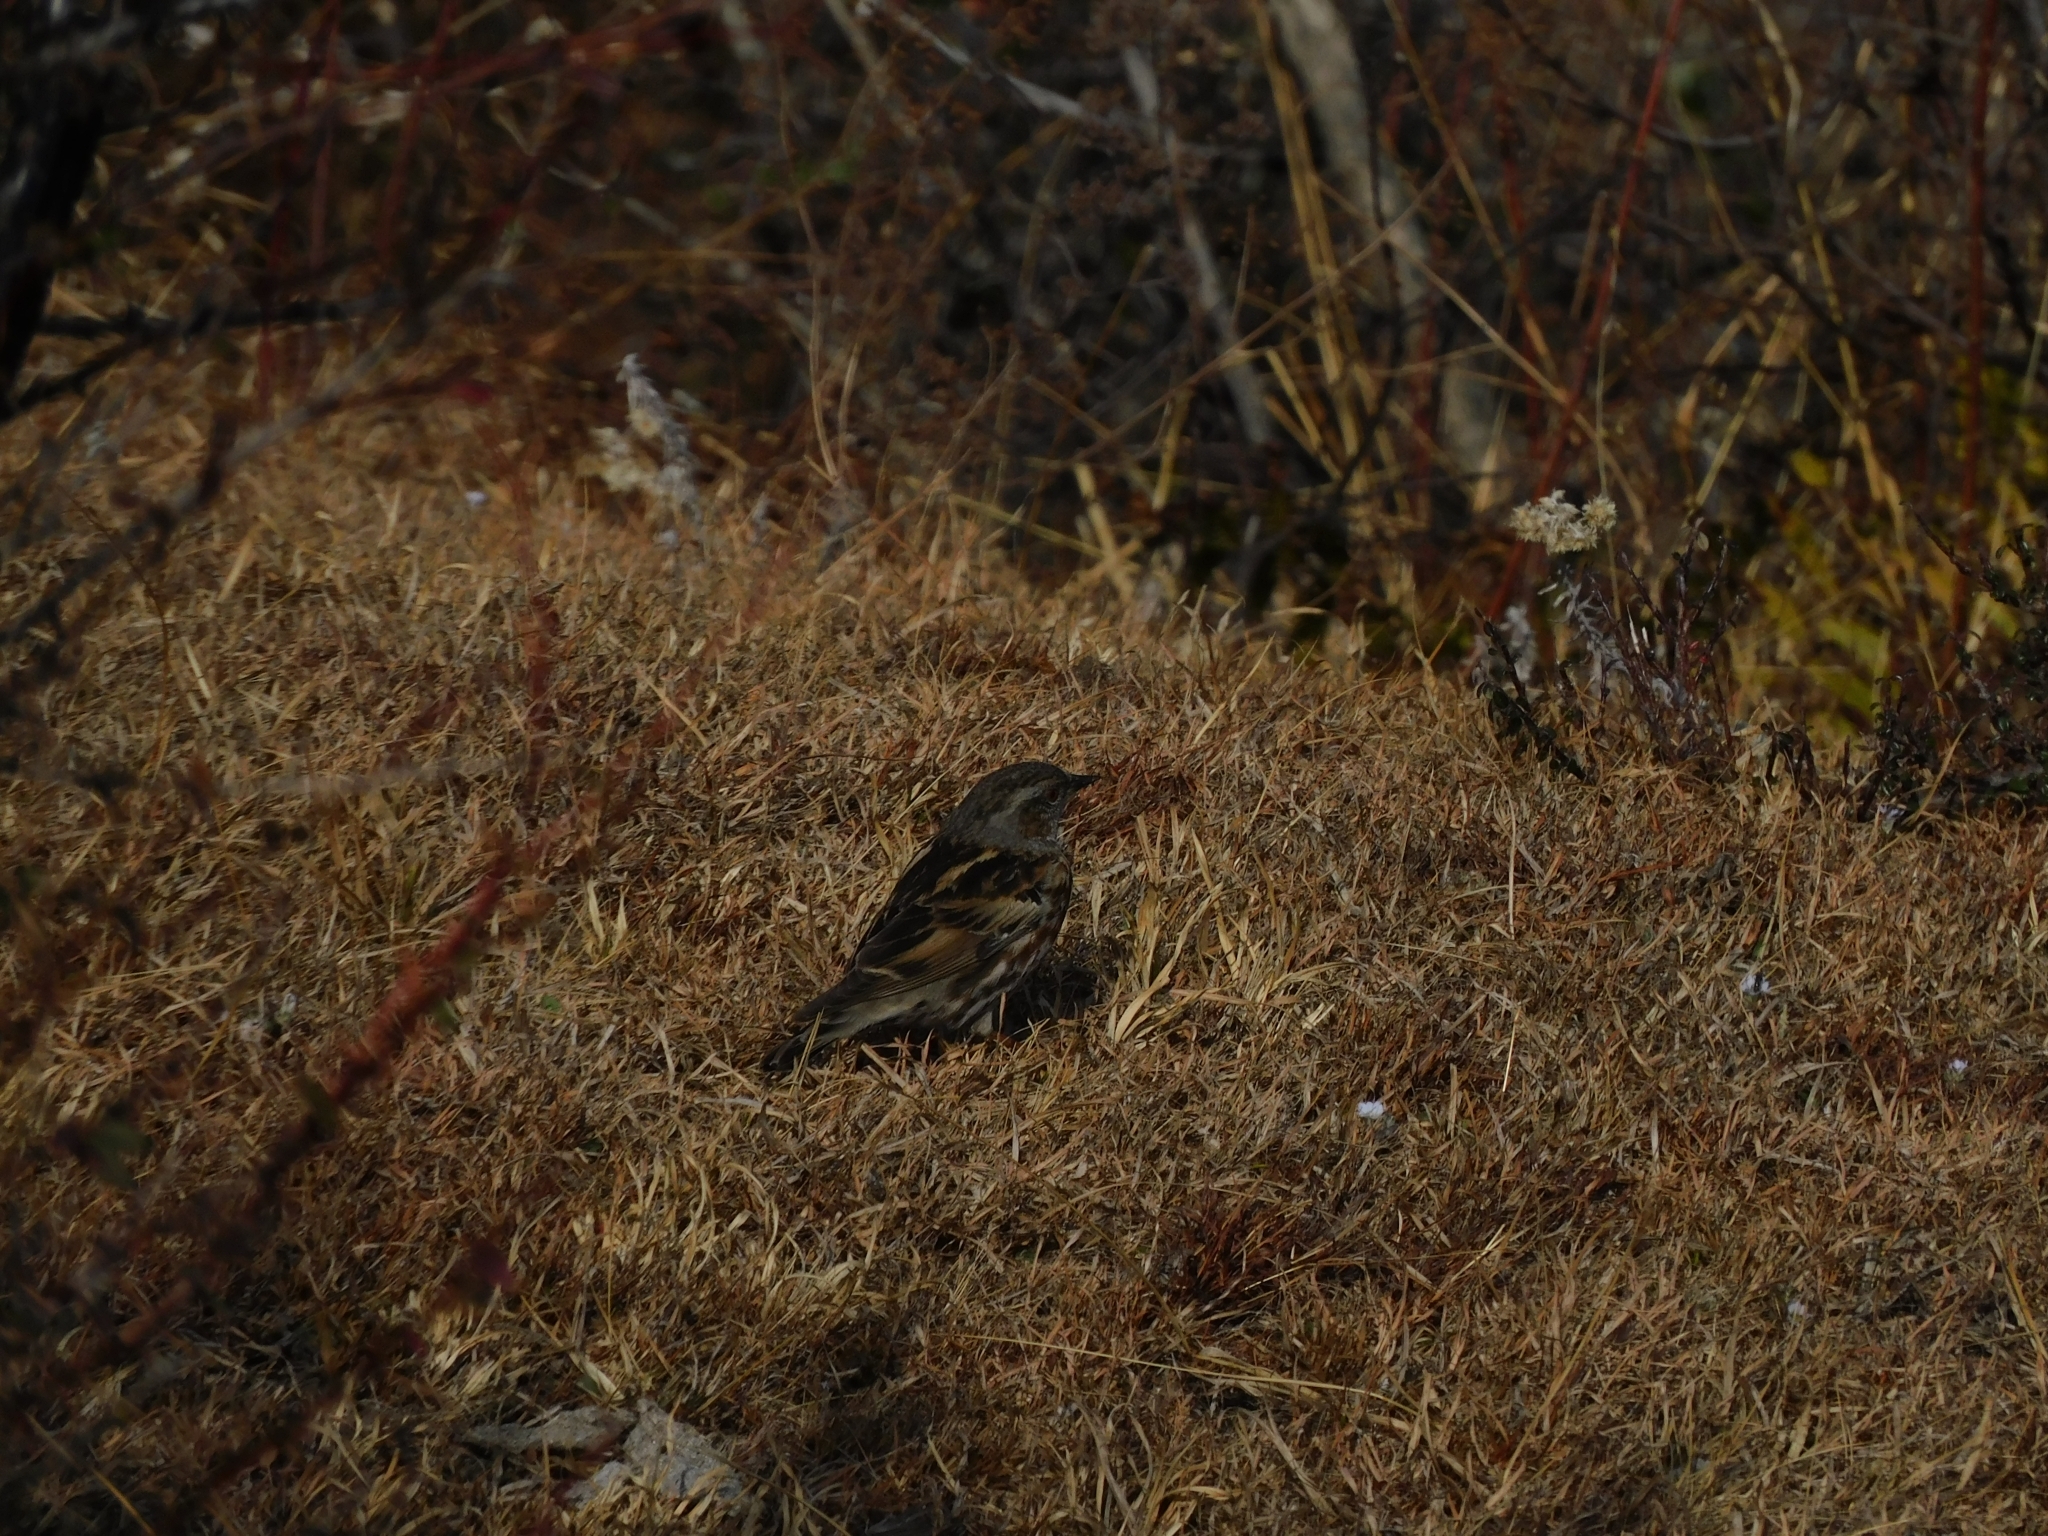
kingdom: Animalia
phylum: Chordata
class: Aves
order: Passeriformes
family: Prunellidae
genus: Prunella
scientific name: Prunella himalayana
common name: Altai accentor
